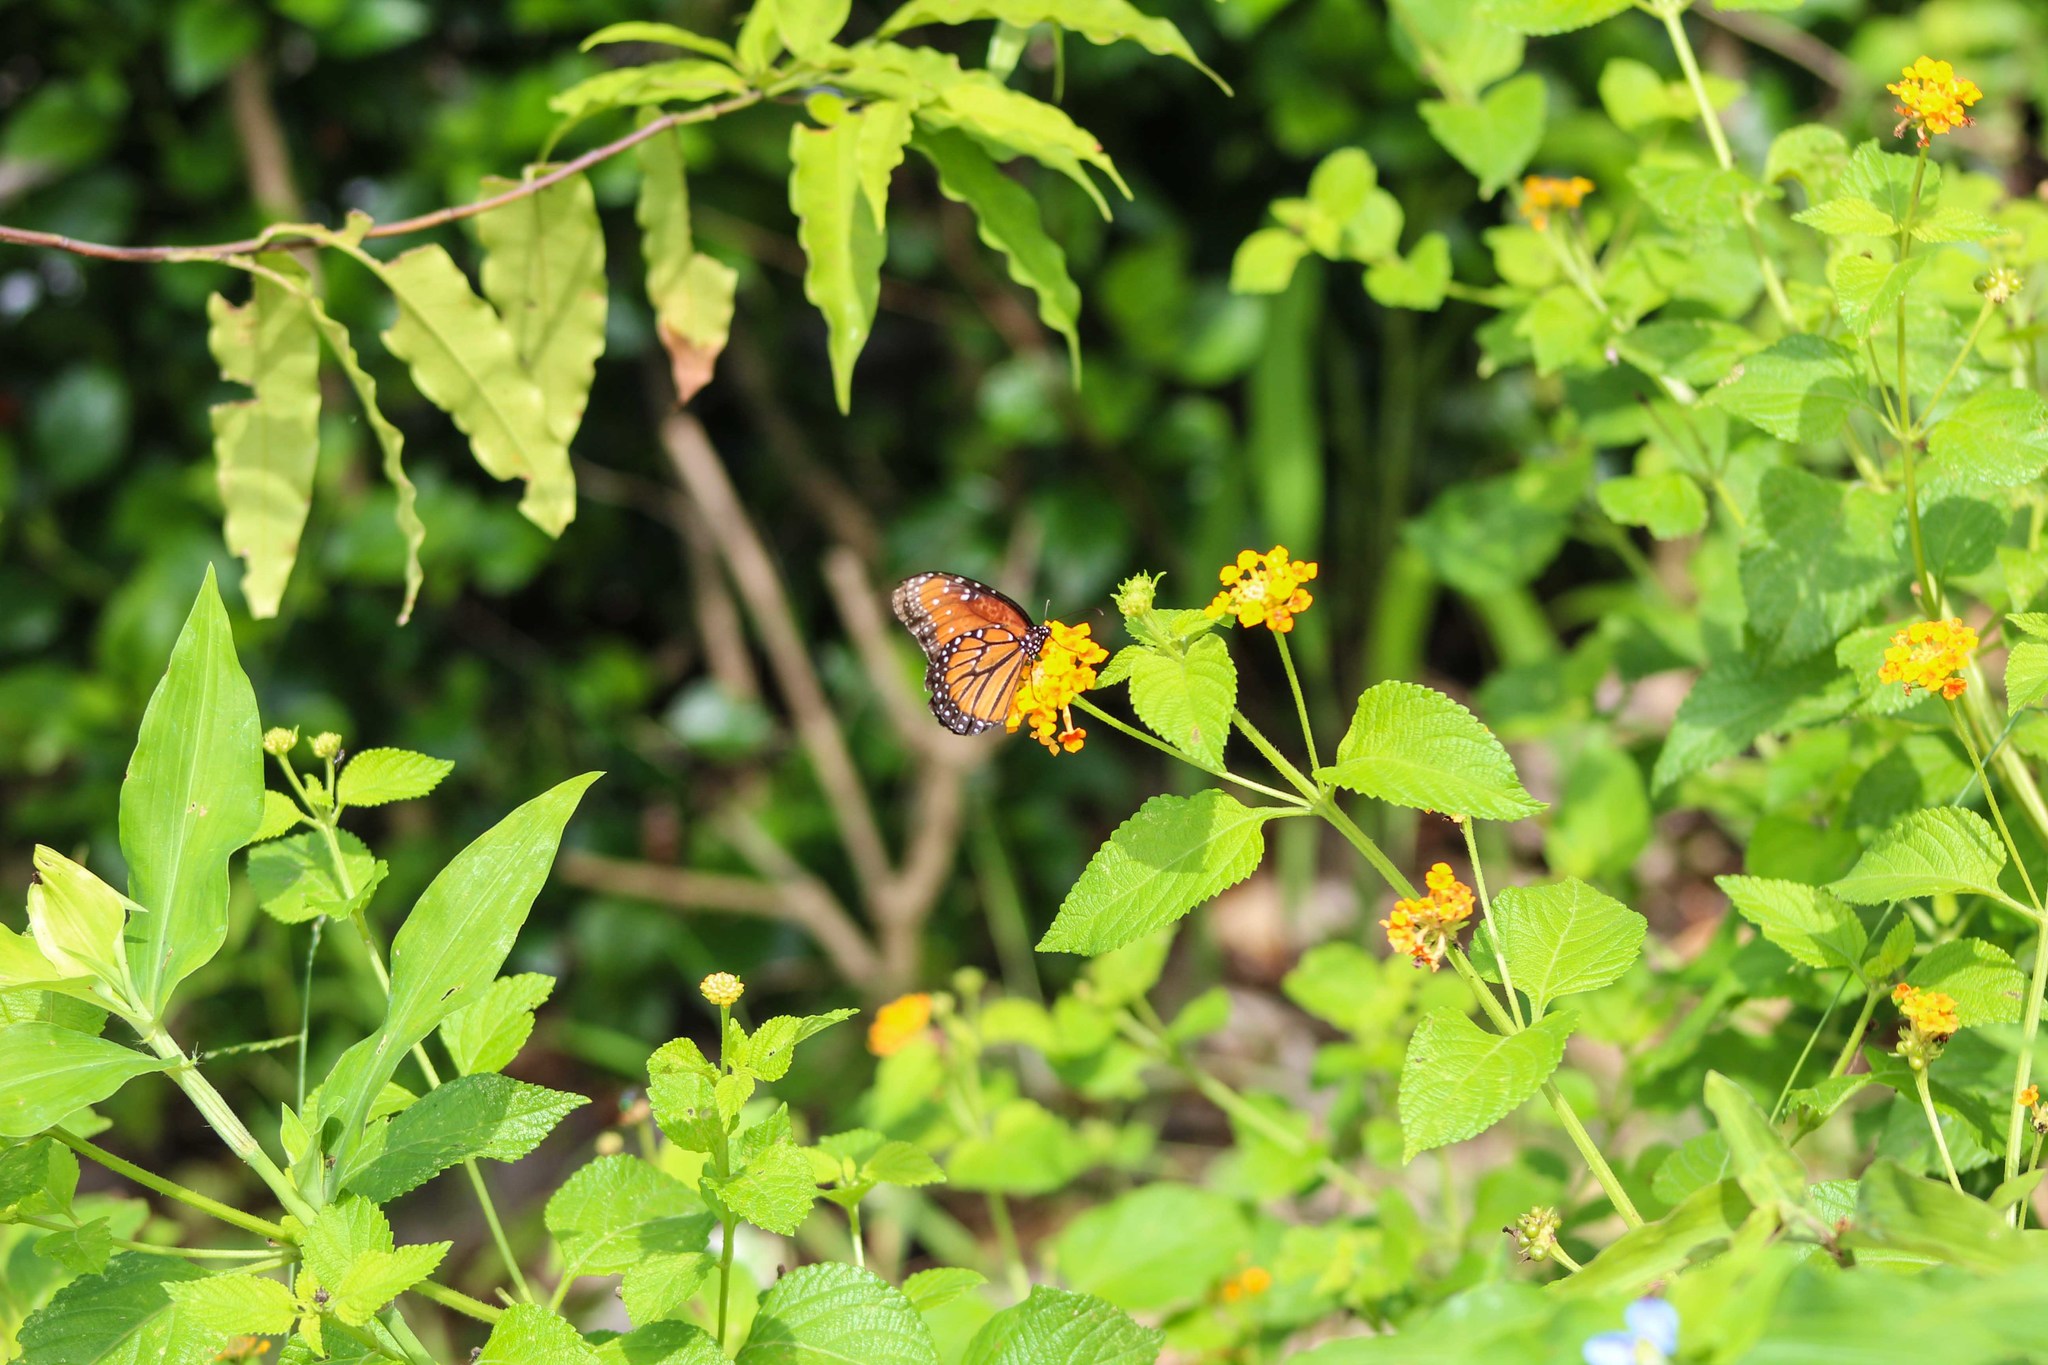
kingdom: Animalia
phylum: Arthropoda
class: Insecta
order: Lepidoptera
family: Nymphalidae
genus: Danaus
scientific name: Danaus gilippus
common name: Queen
